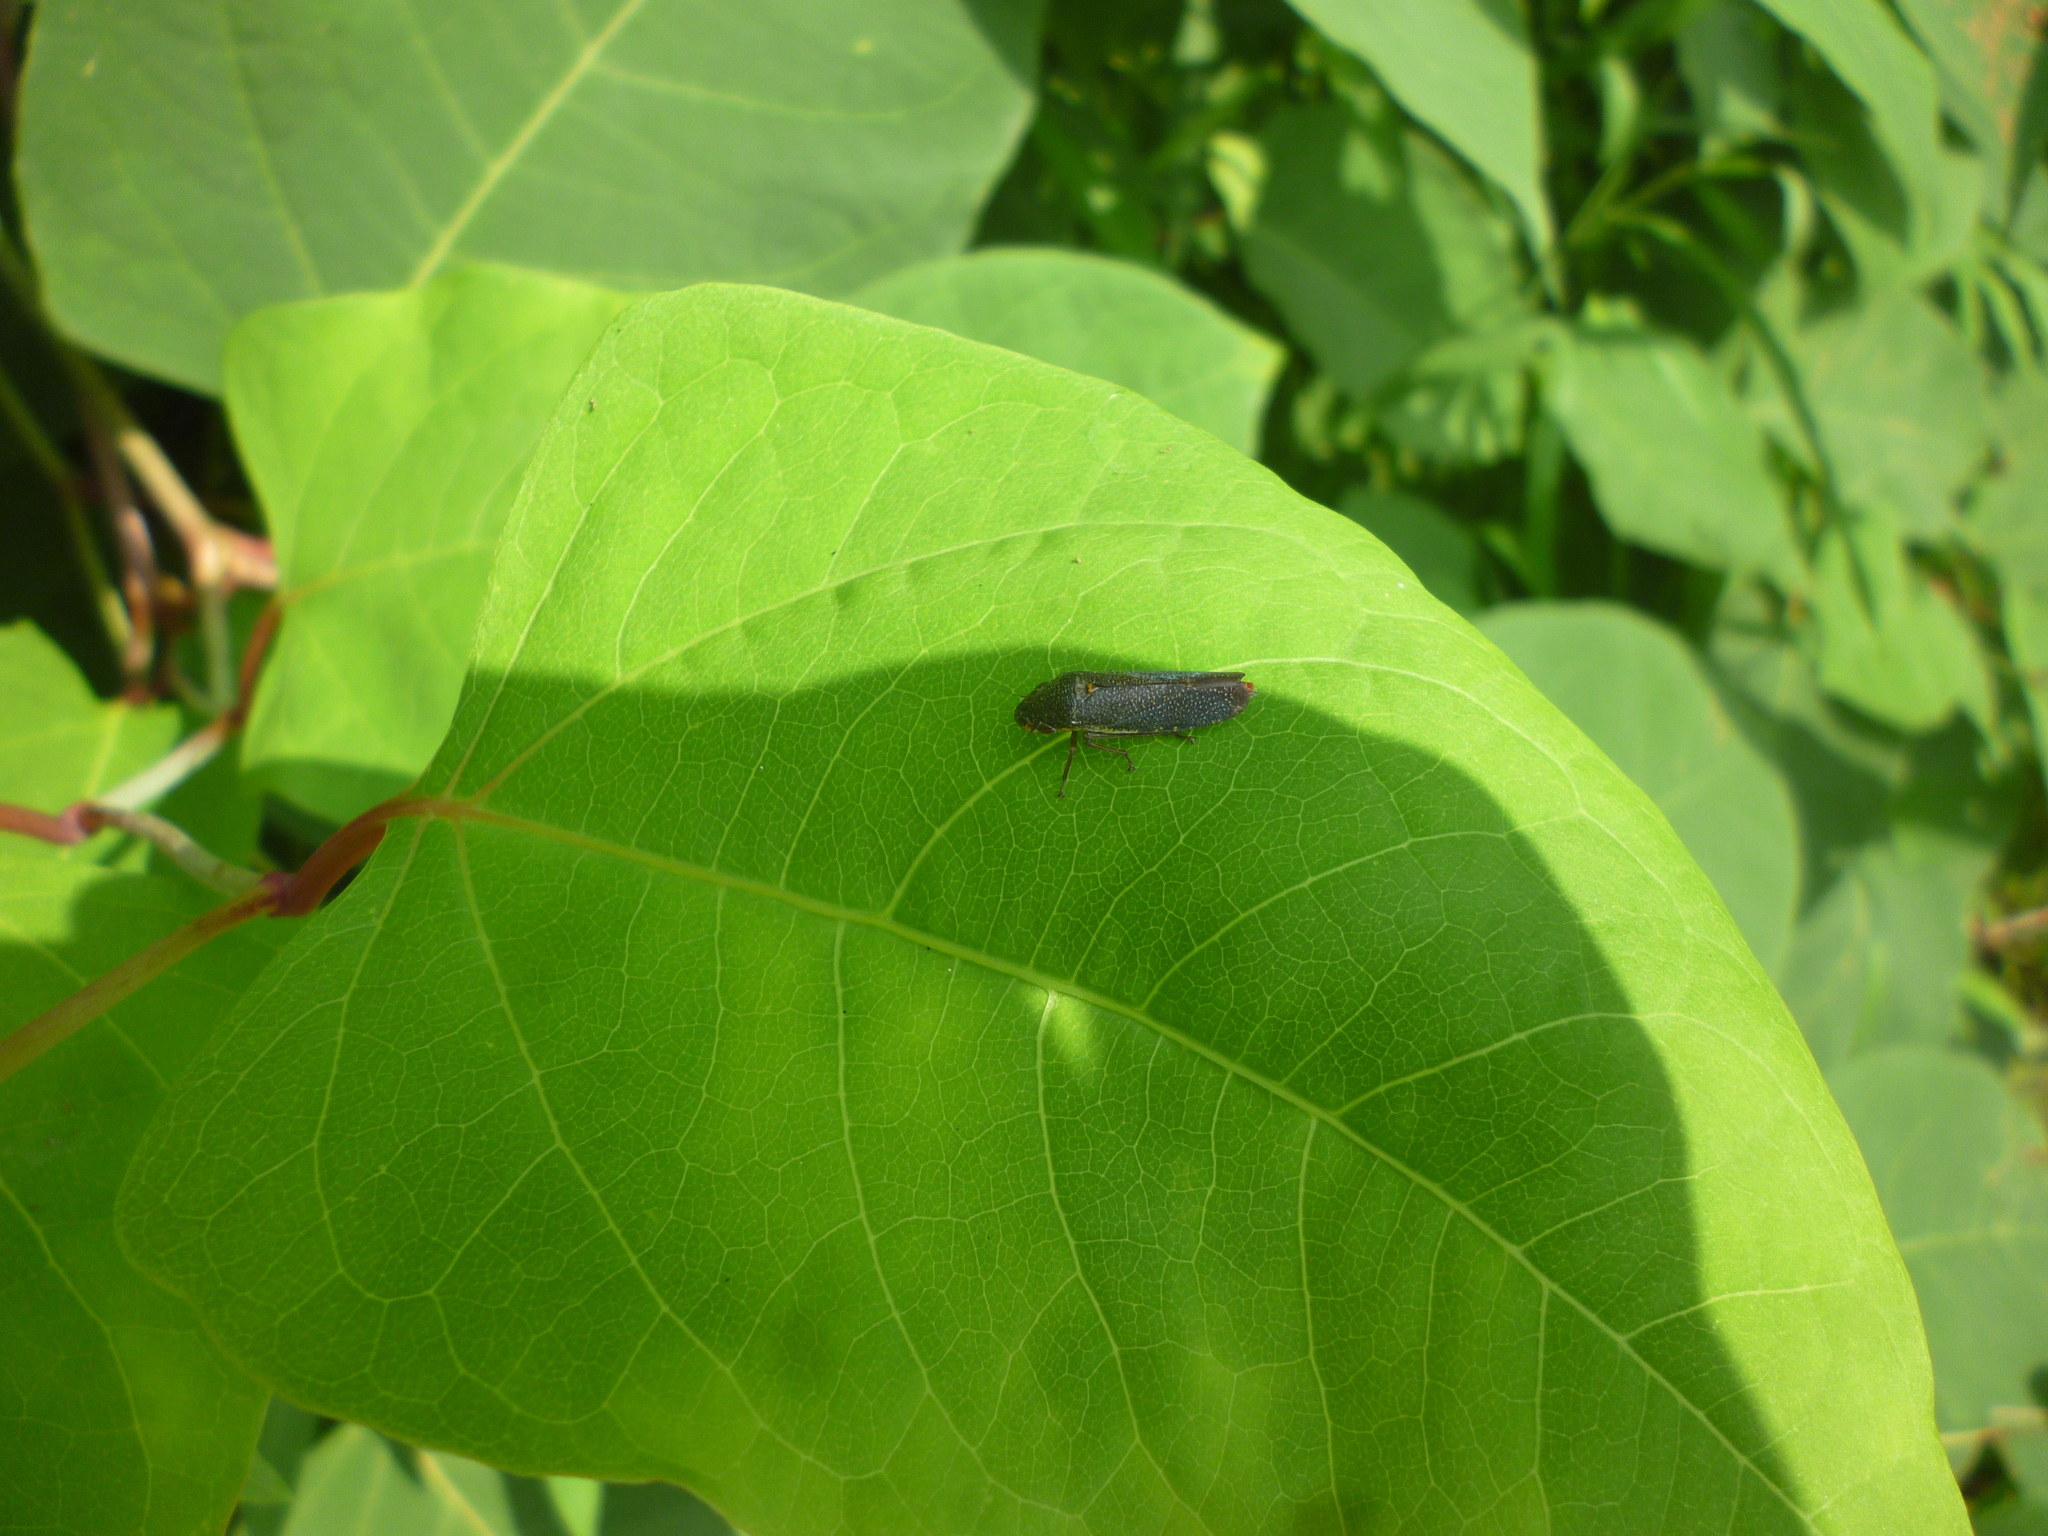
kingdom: Plantae
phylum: Tracheophyta
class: Magnoliopsida
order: Caryophyllales
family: Polygonaceae
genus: Reynoutria
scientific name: Reynoutria
